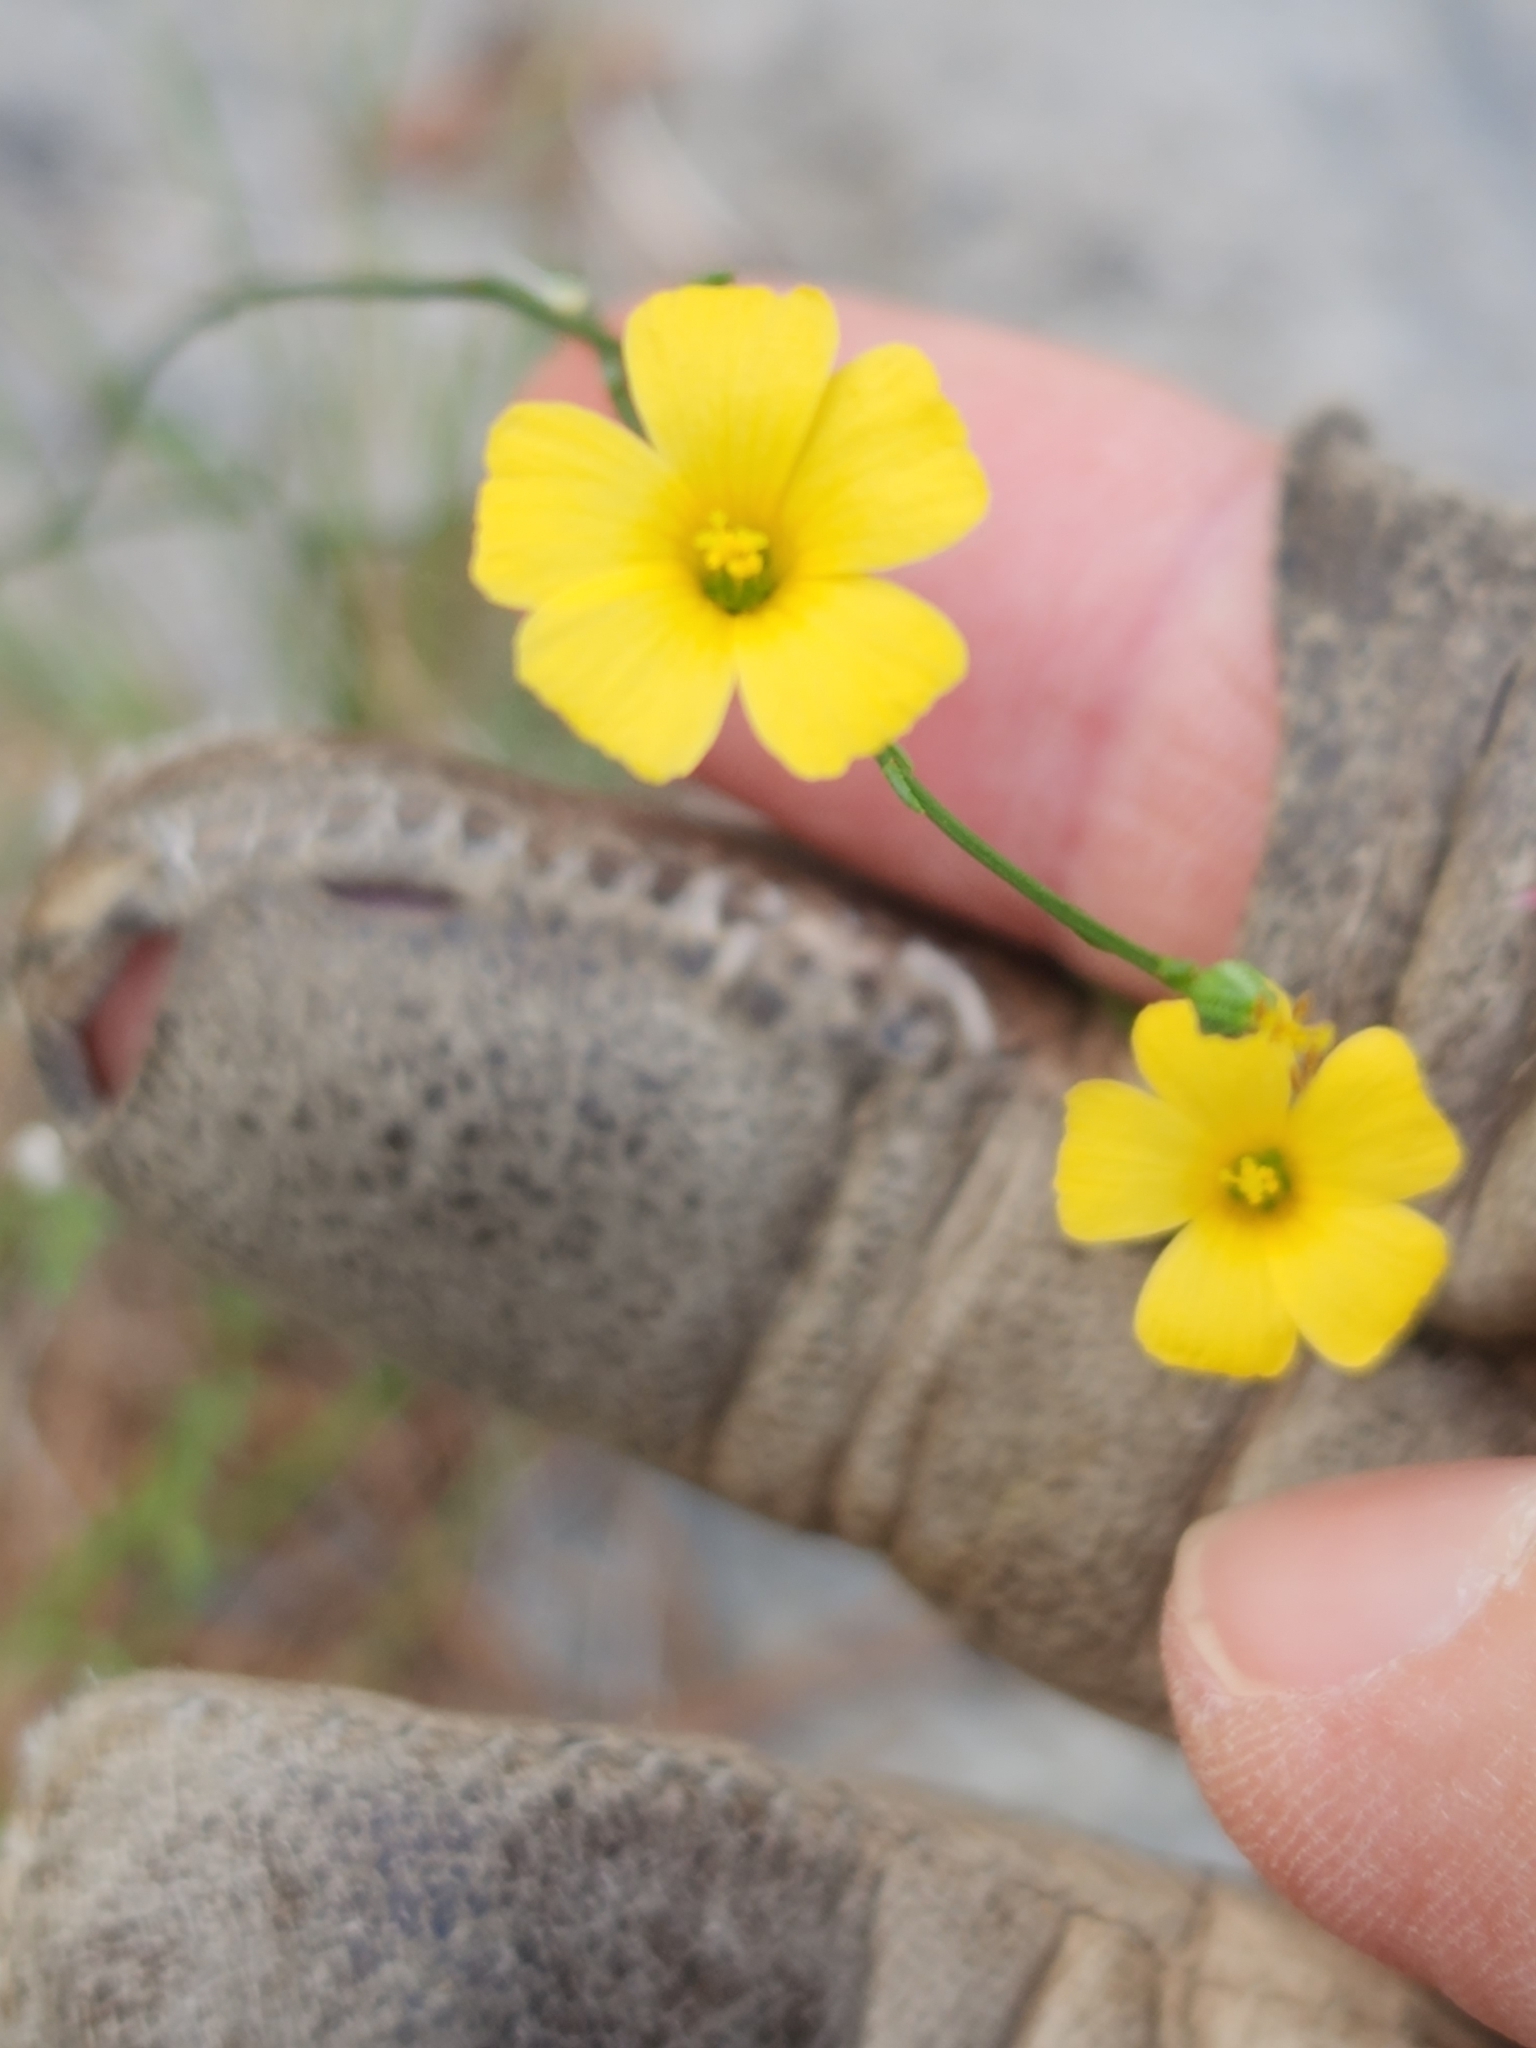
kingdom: Plantae
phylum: Tracheophyta
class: Magnoliopsida
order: Malpighiales
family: Linaceae
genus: Linum
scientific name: Linum rupestre
